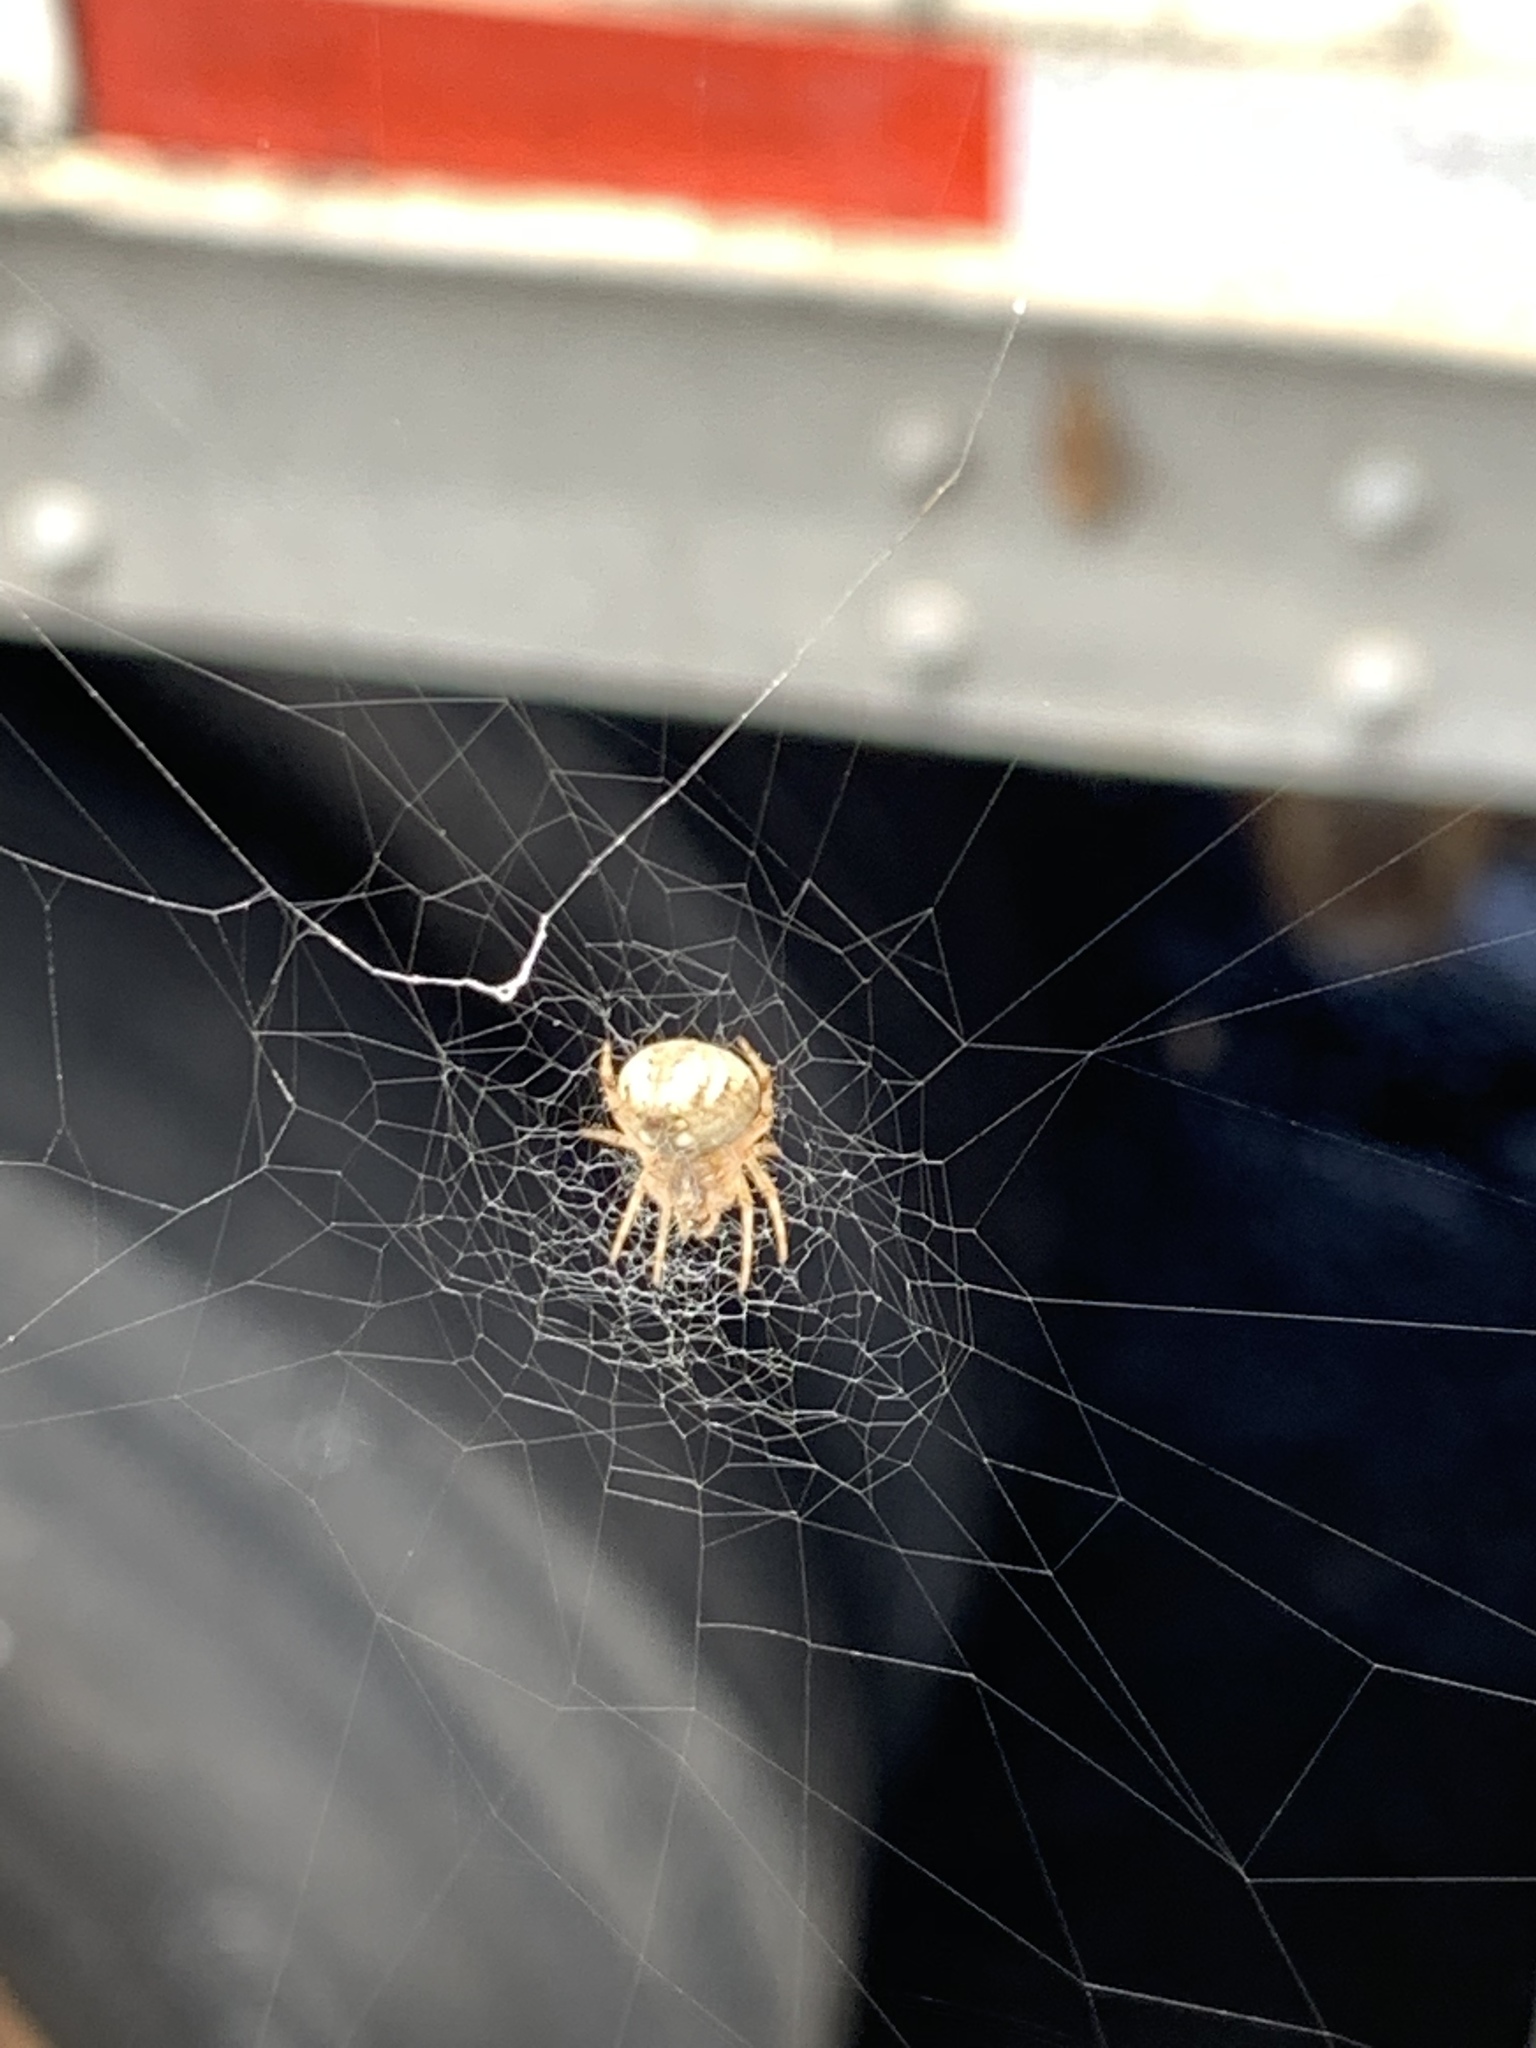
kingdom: Animalia
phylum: Arthropoda
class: Arachnida
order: Araneae
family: Araneidae
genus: Neoscona
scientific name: Neoscona nautica
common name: Orb weavers
